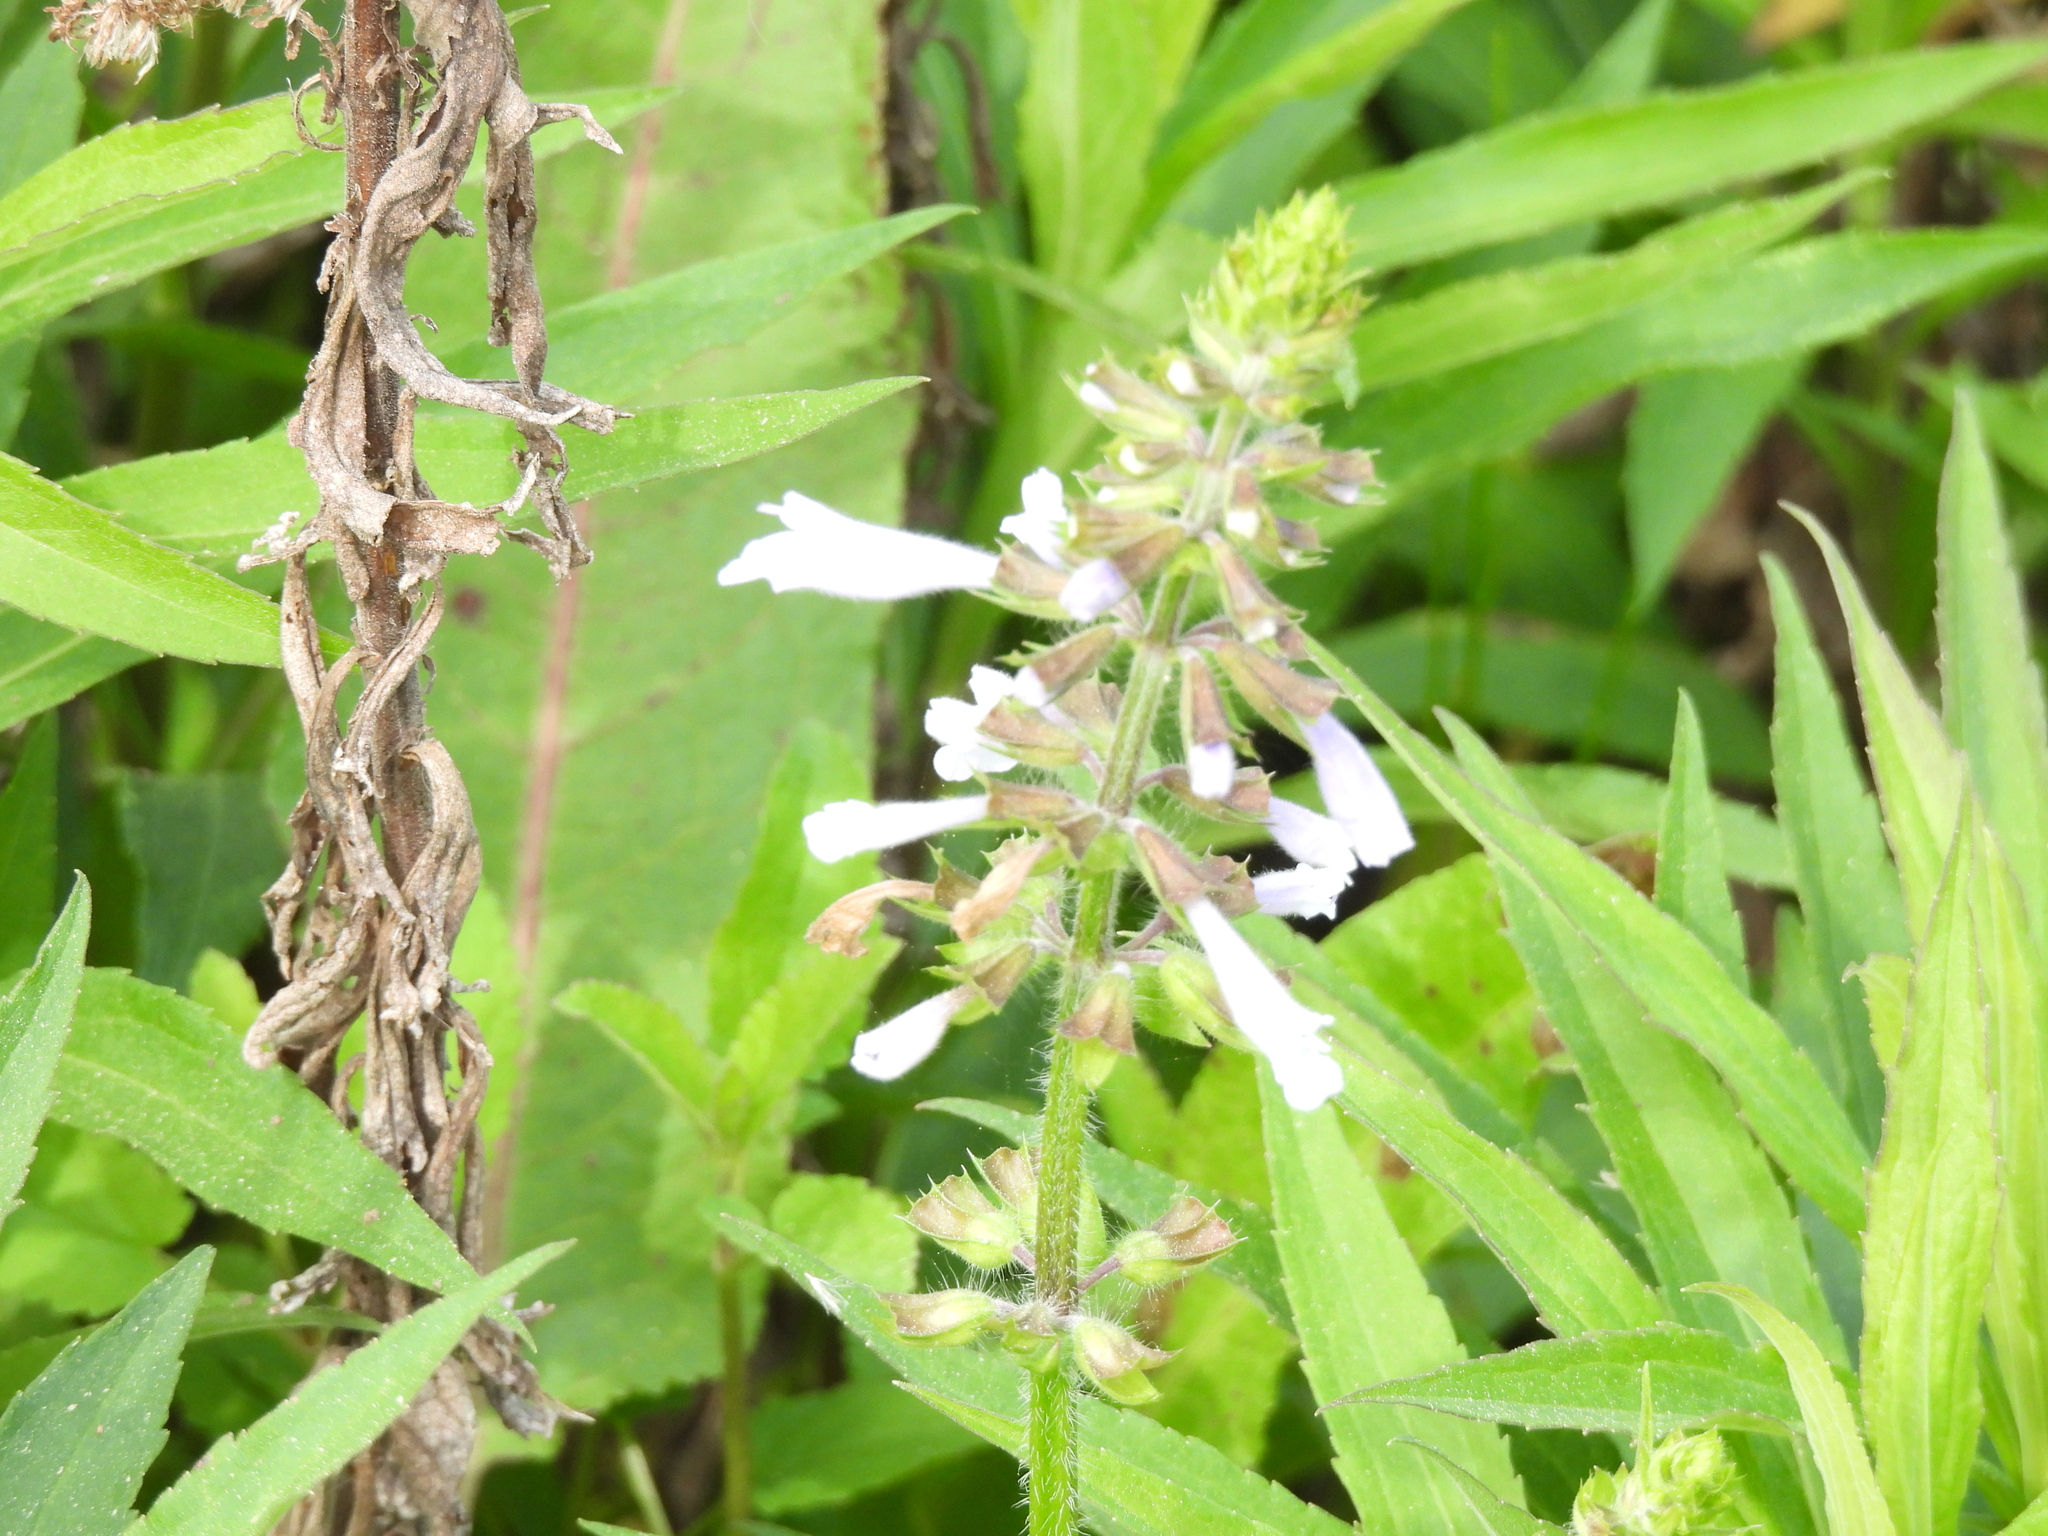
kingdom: Plantae
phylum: Tracheophyta
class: Magnoliopsida
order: Lamiales
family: Lamiaceae
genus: Salvia
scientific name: Salvia lyrata
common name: Cancerweed
